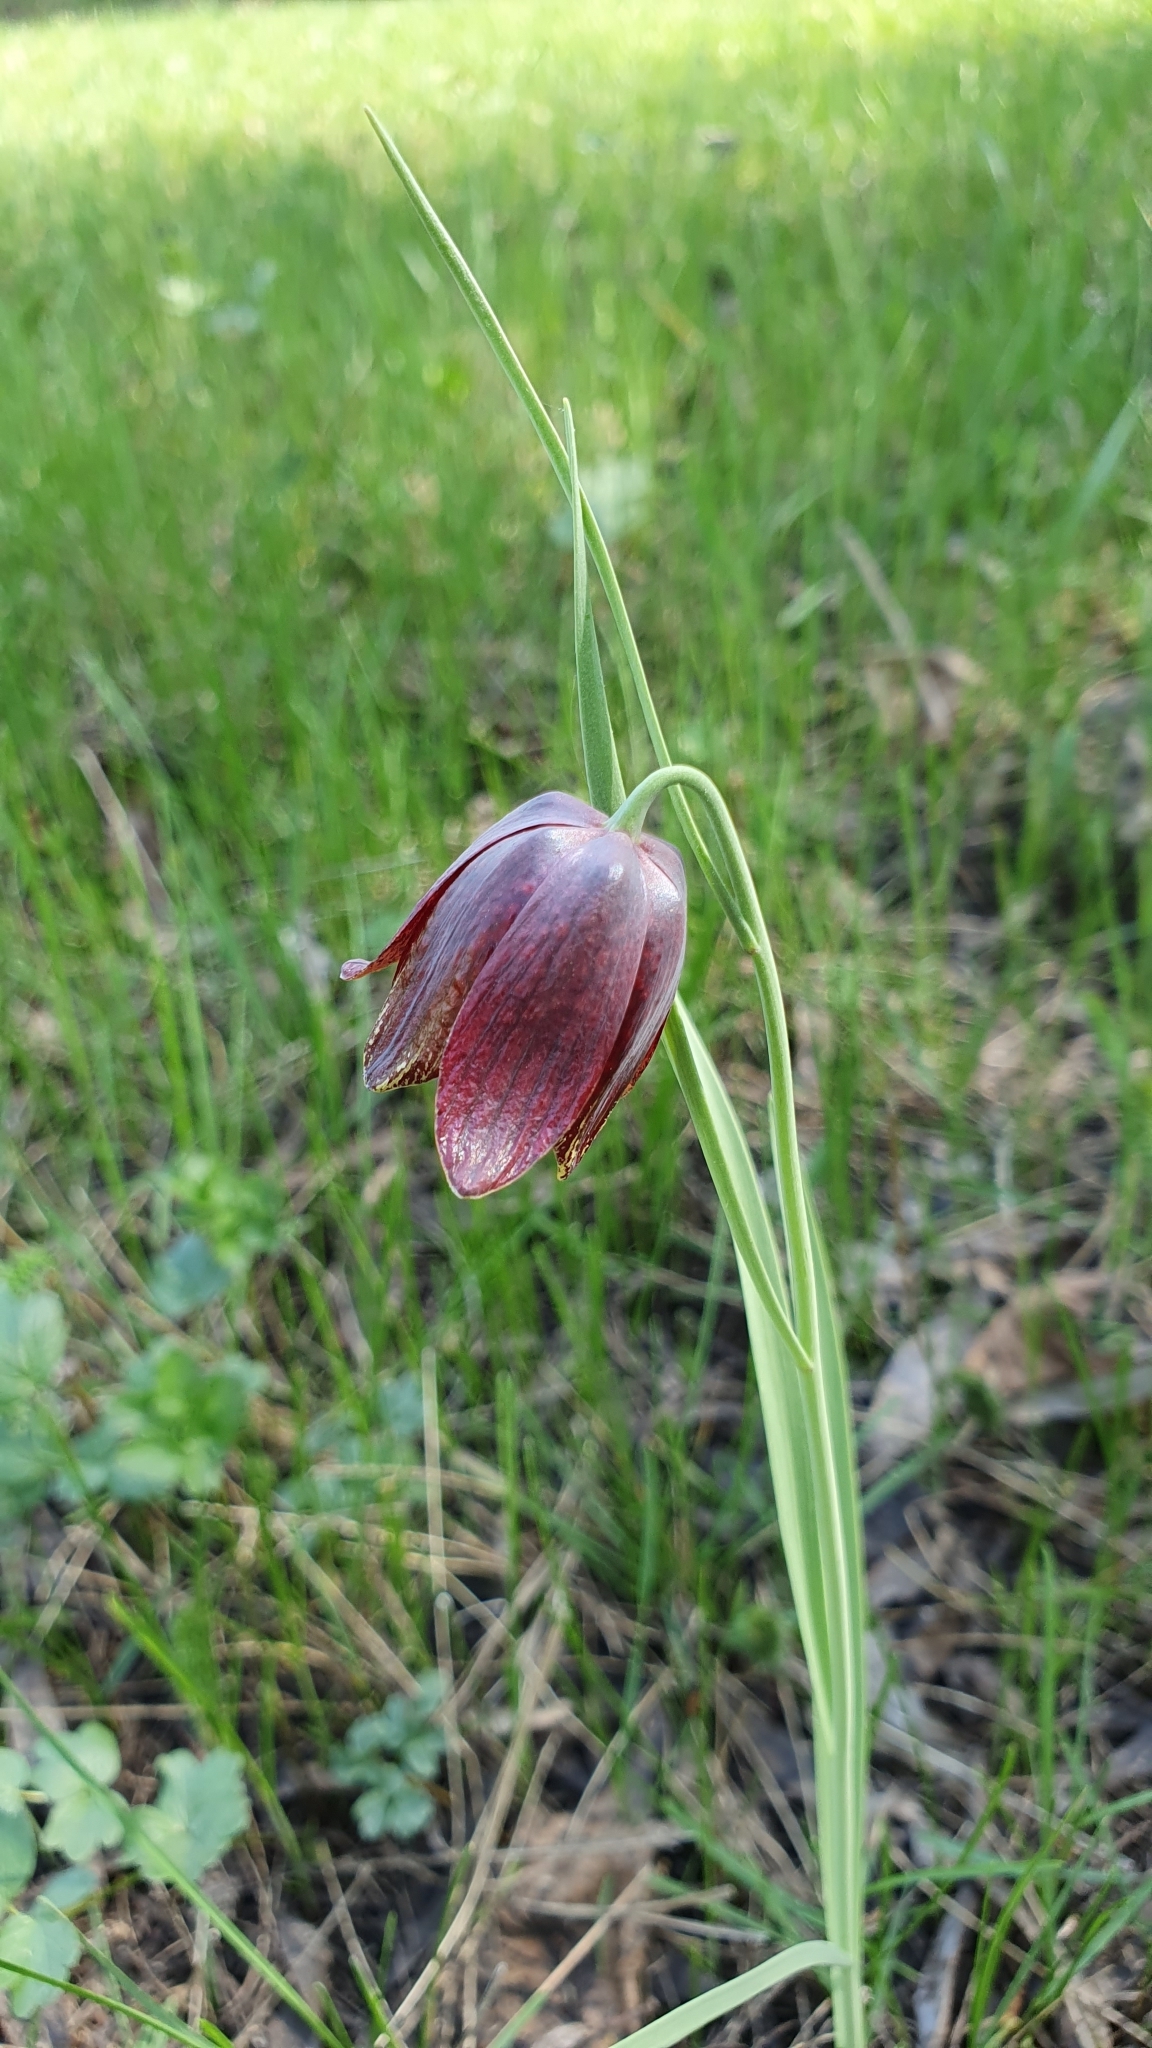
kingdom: Plantae
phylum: Tracheophyta
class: Liliopsida
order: Liliales
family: Liliaceae
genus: Fritillaria
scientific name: Fritillaria meleagroides
